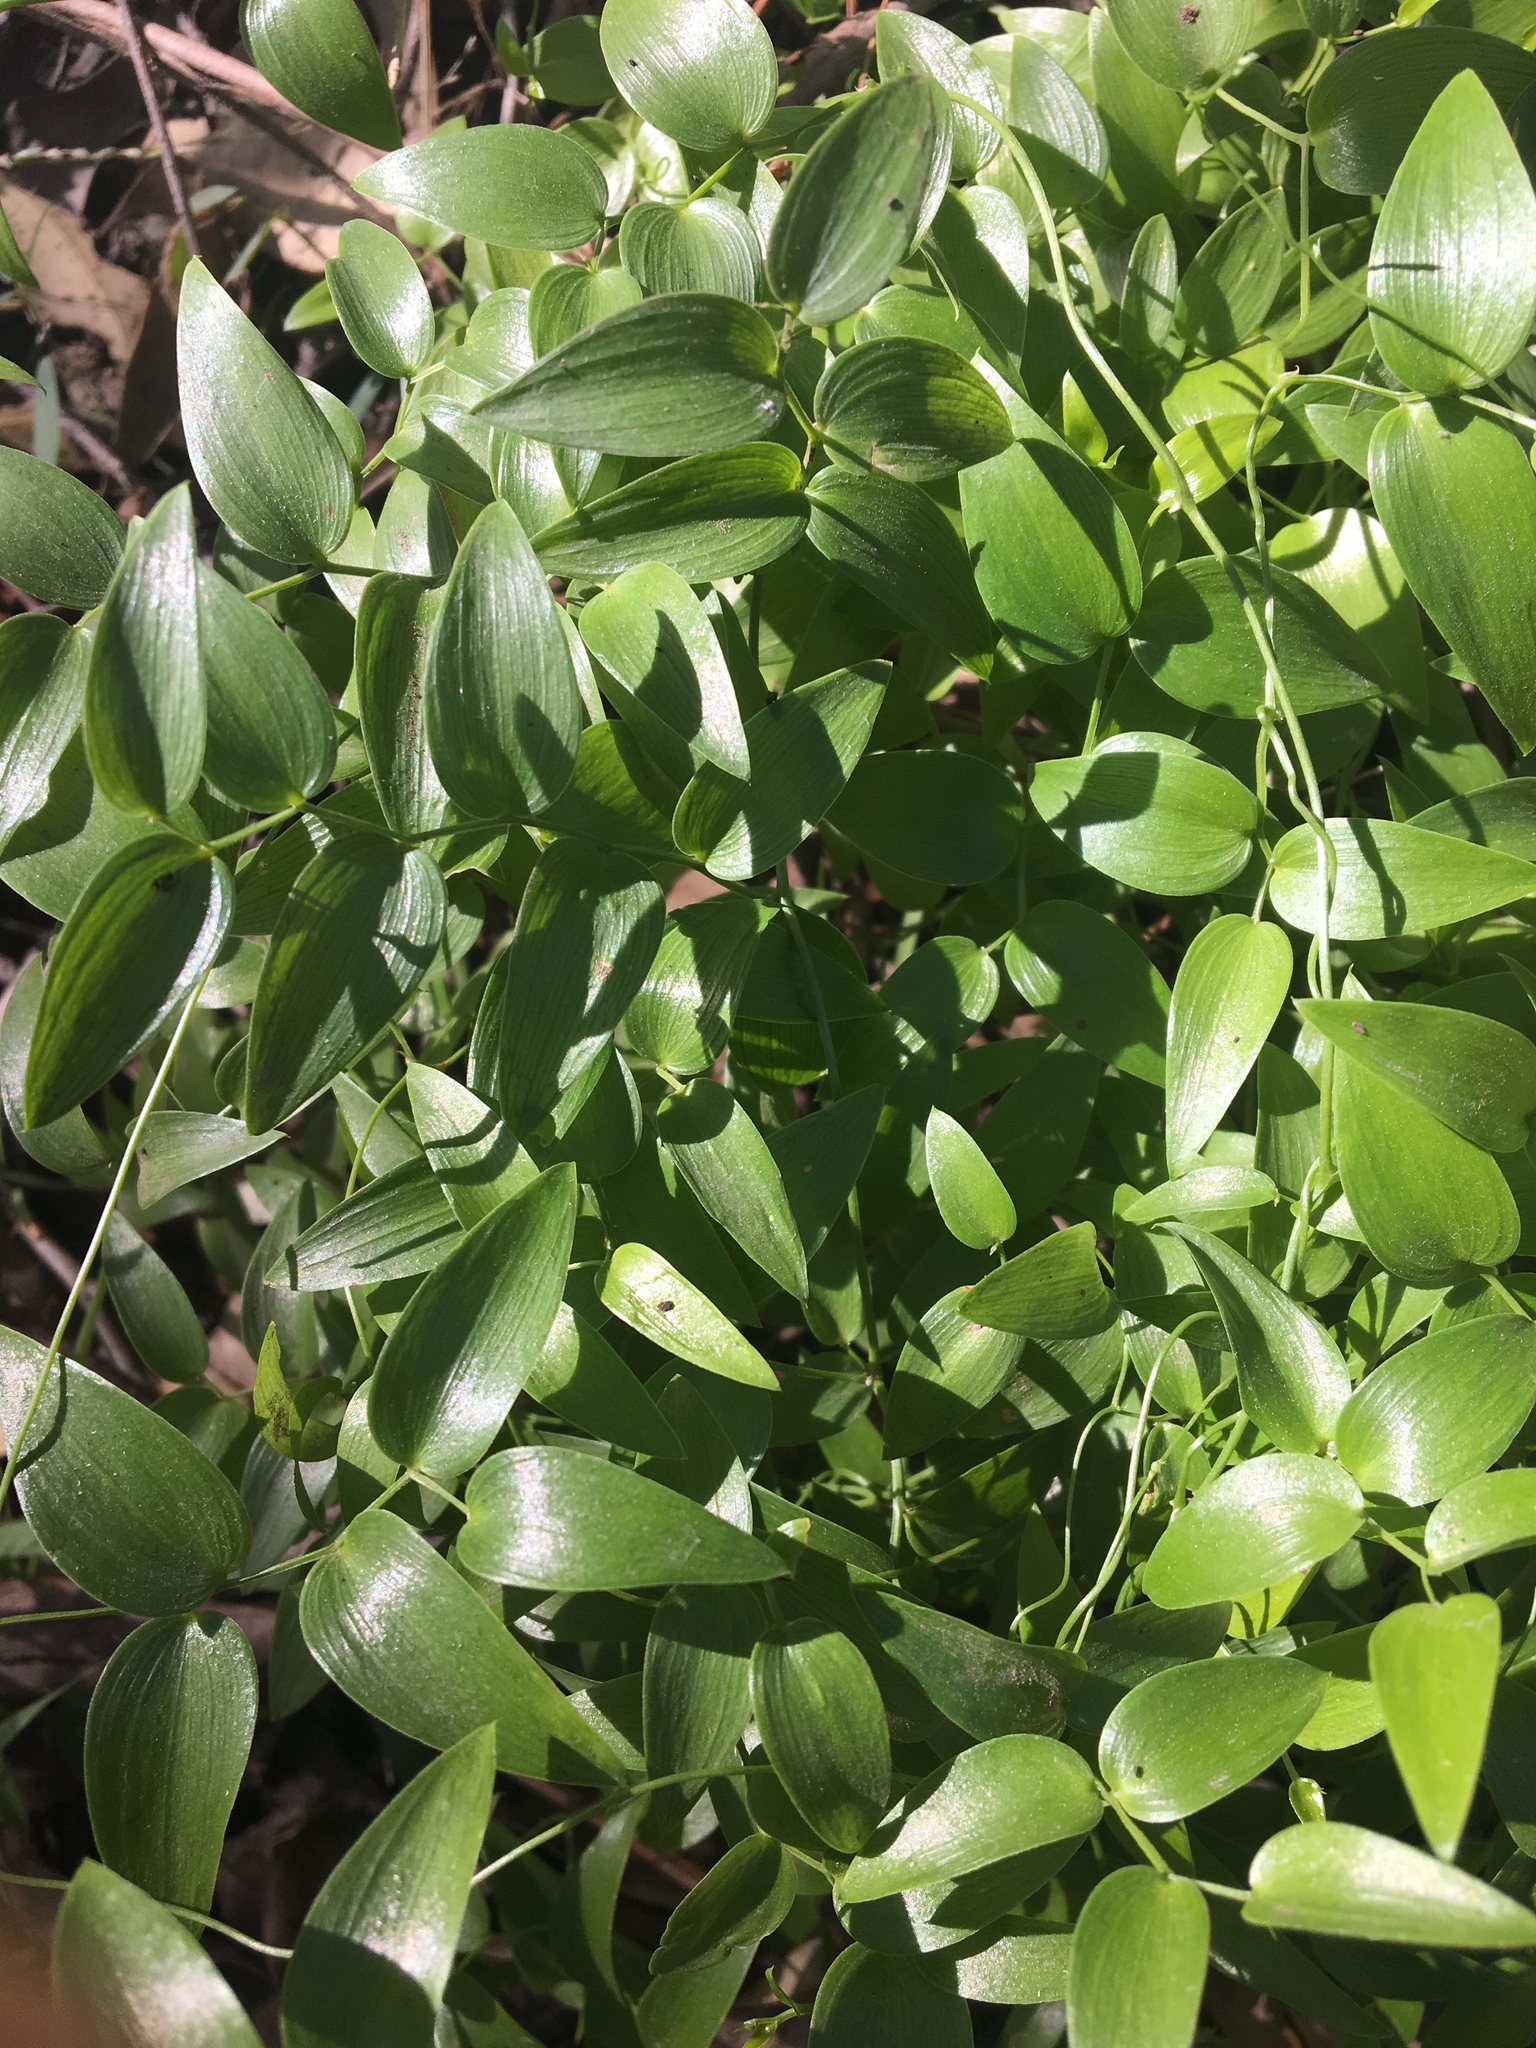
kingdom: Plantae
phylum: Tracheophyta
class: Liliopsida
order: Asparagales
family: Asparagaceae
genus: Asparagus
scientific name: Asparagus asparagoides
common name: African asparagus fern
